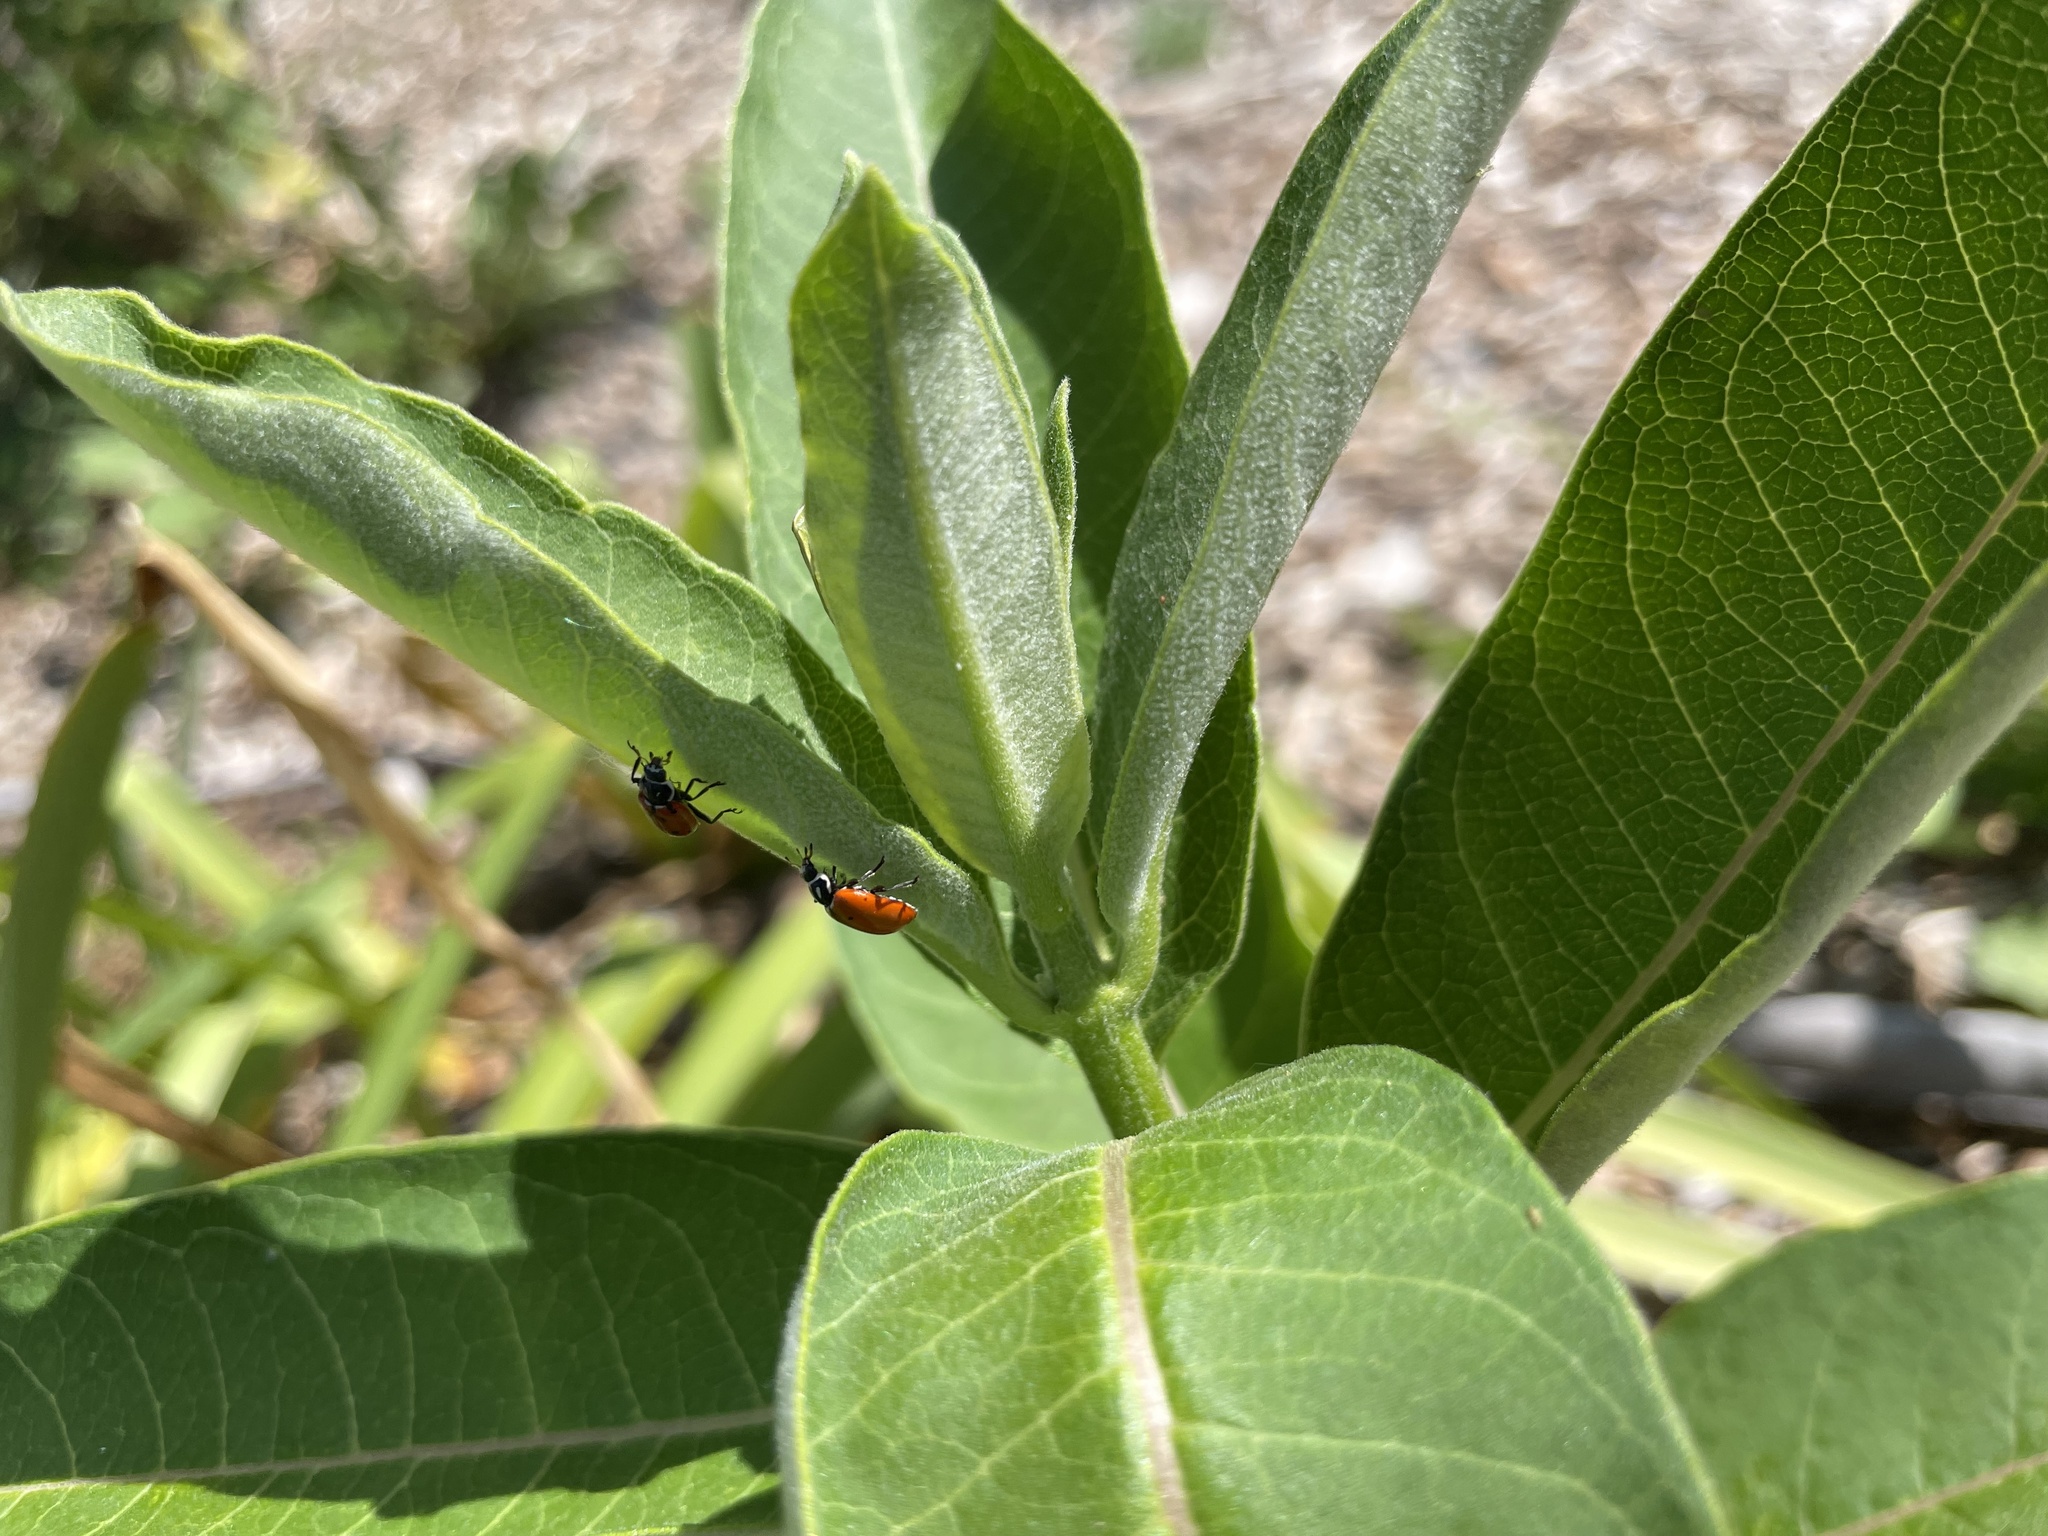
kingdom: Animalia
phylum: Arthropoda
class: Insecta
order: Coleoptera
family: Coccinellidae
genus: Hippodamia
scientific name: Hippodamia convergens
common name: Convergent lady beetle
